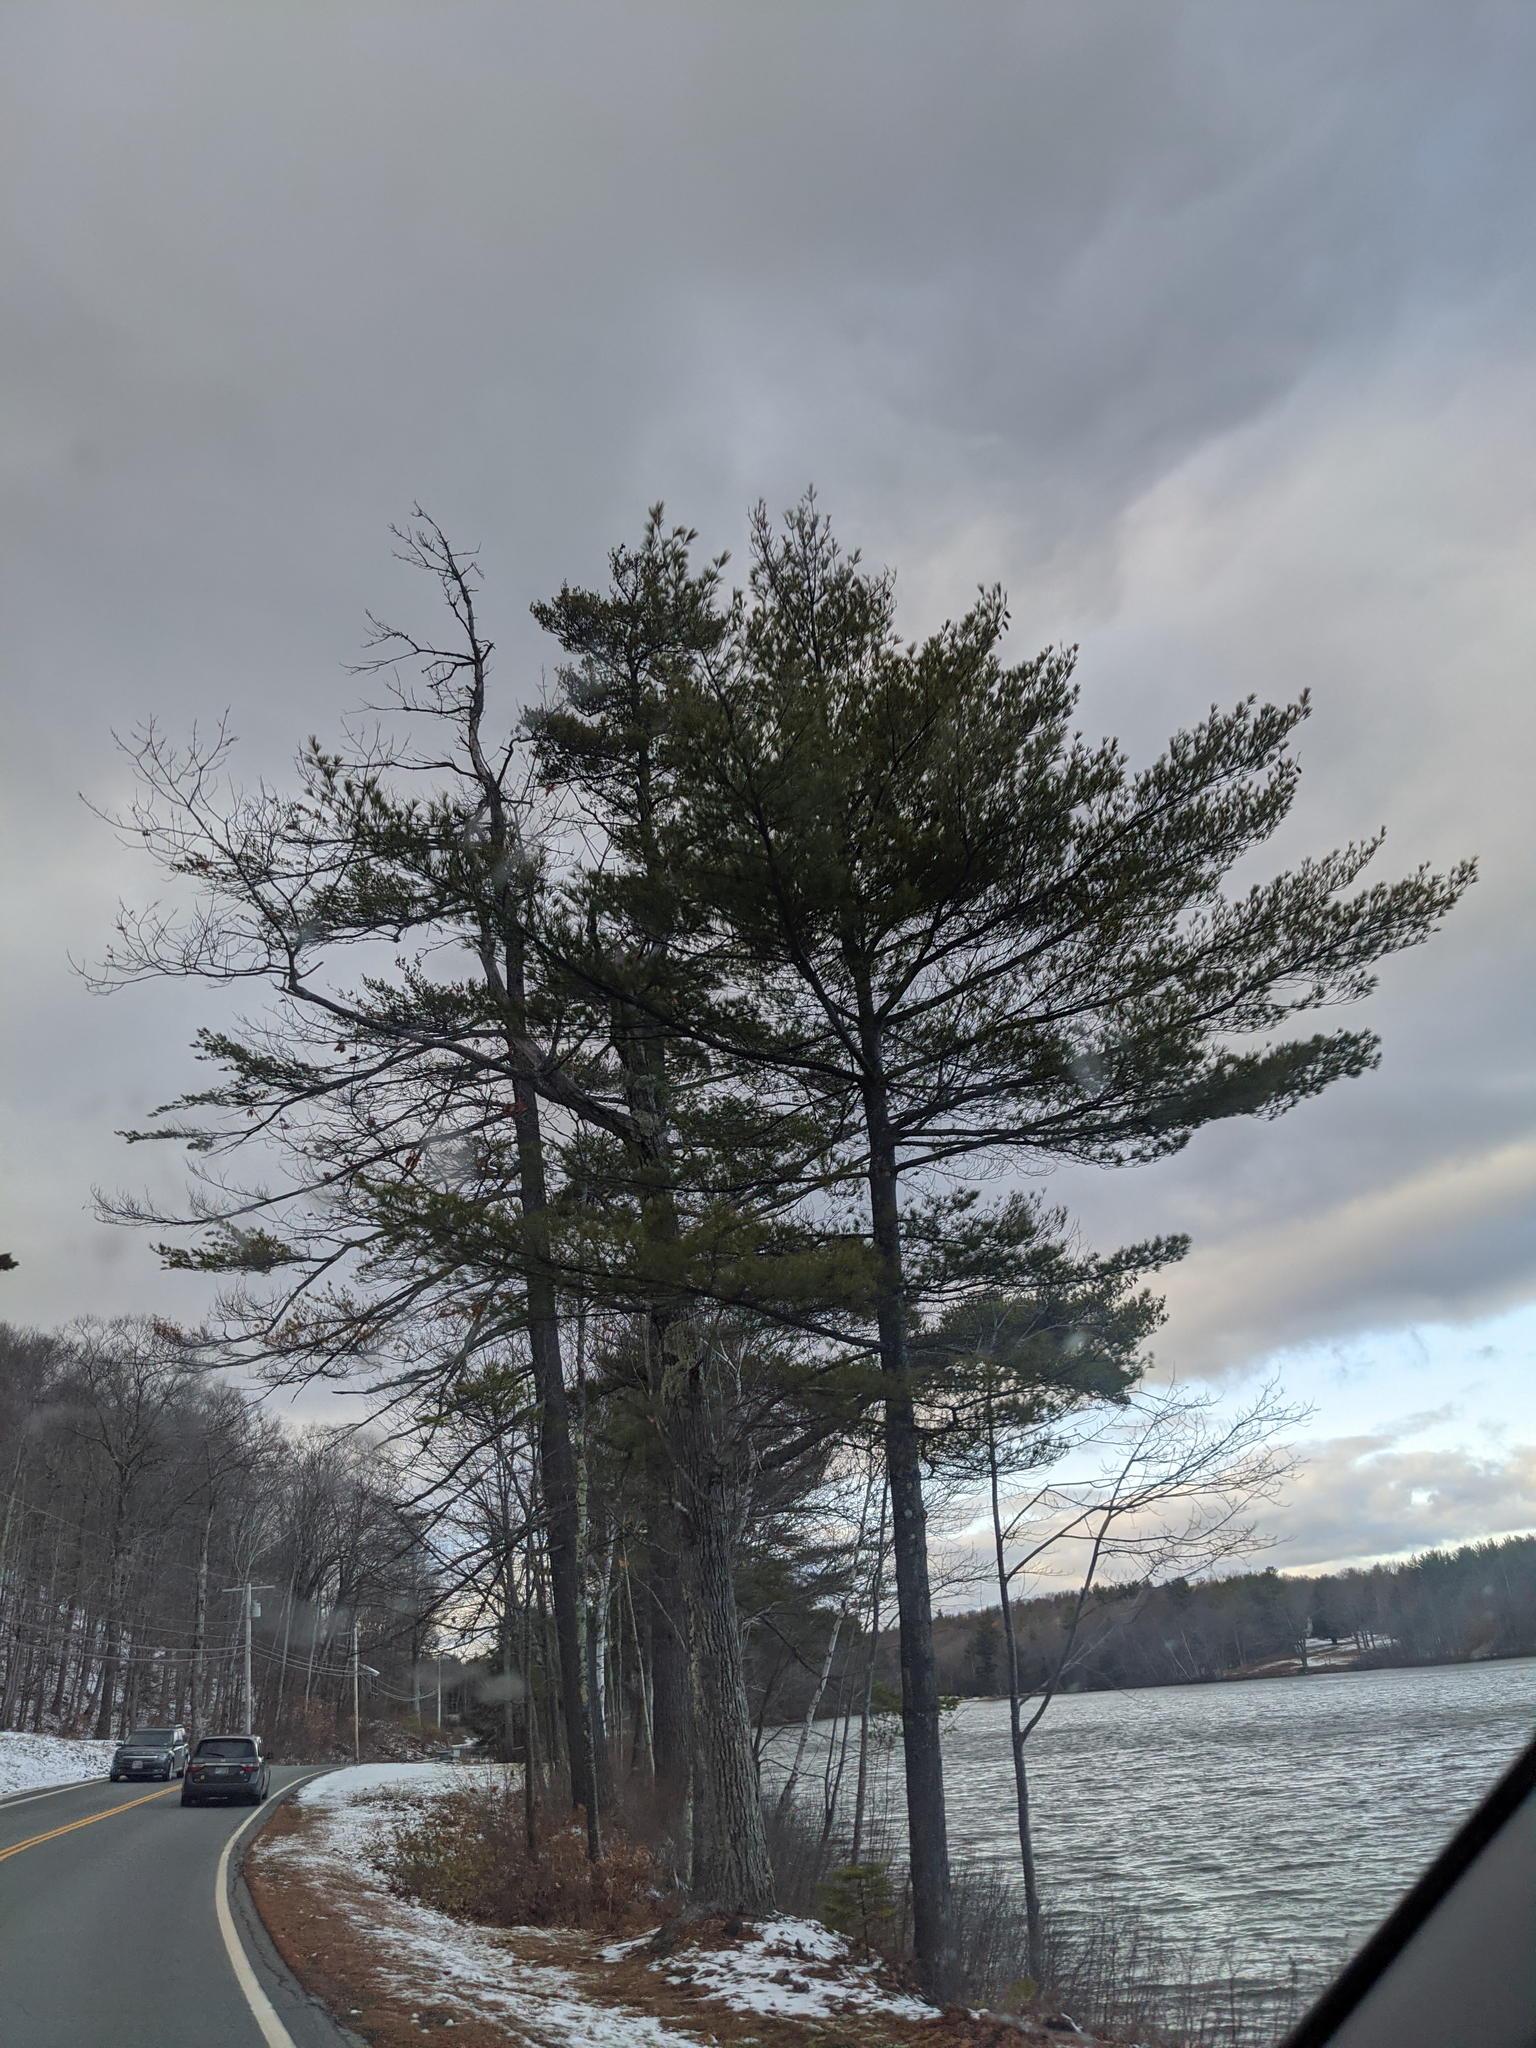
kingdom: Plantae
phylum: Tracheophyta
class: Pinopsida
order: Pinales
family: Pinaceae
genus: Pinus
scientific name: Pinus strobus
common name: Weymouth pine
